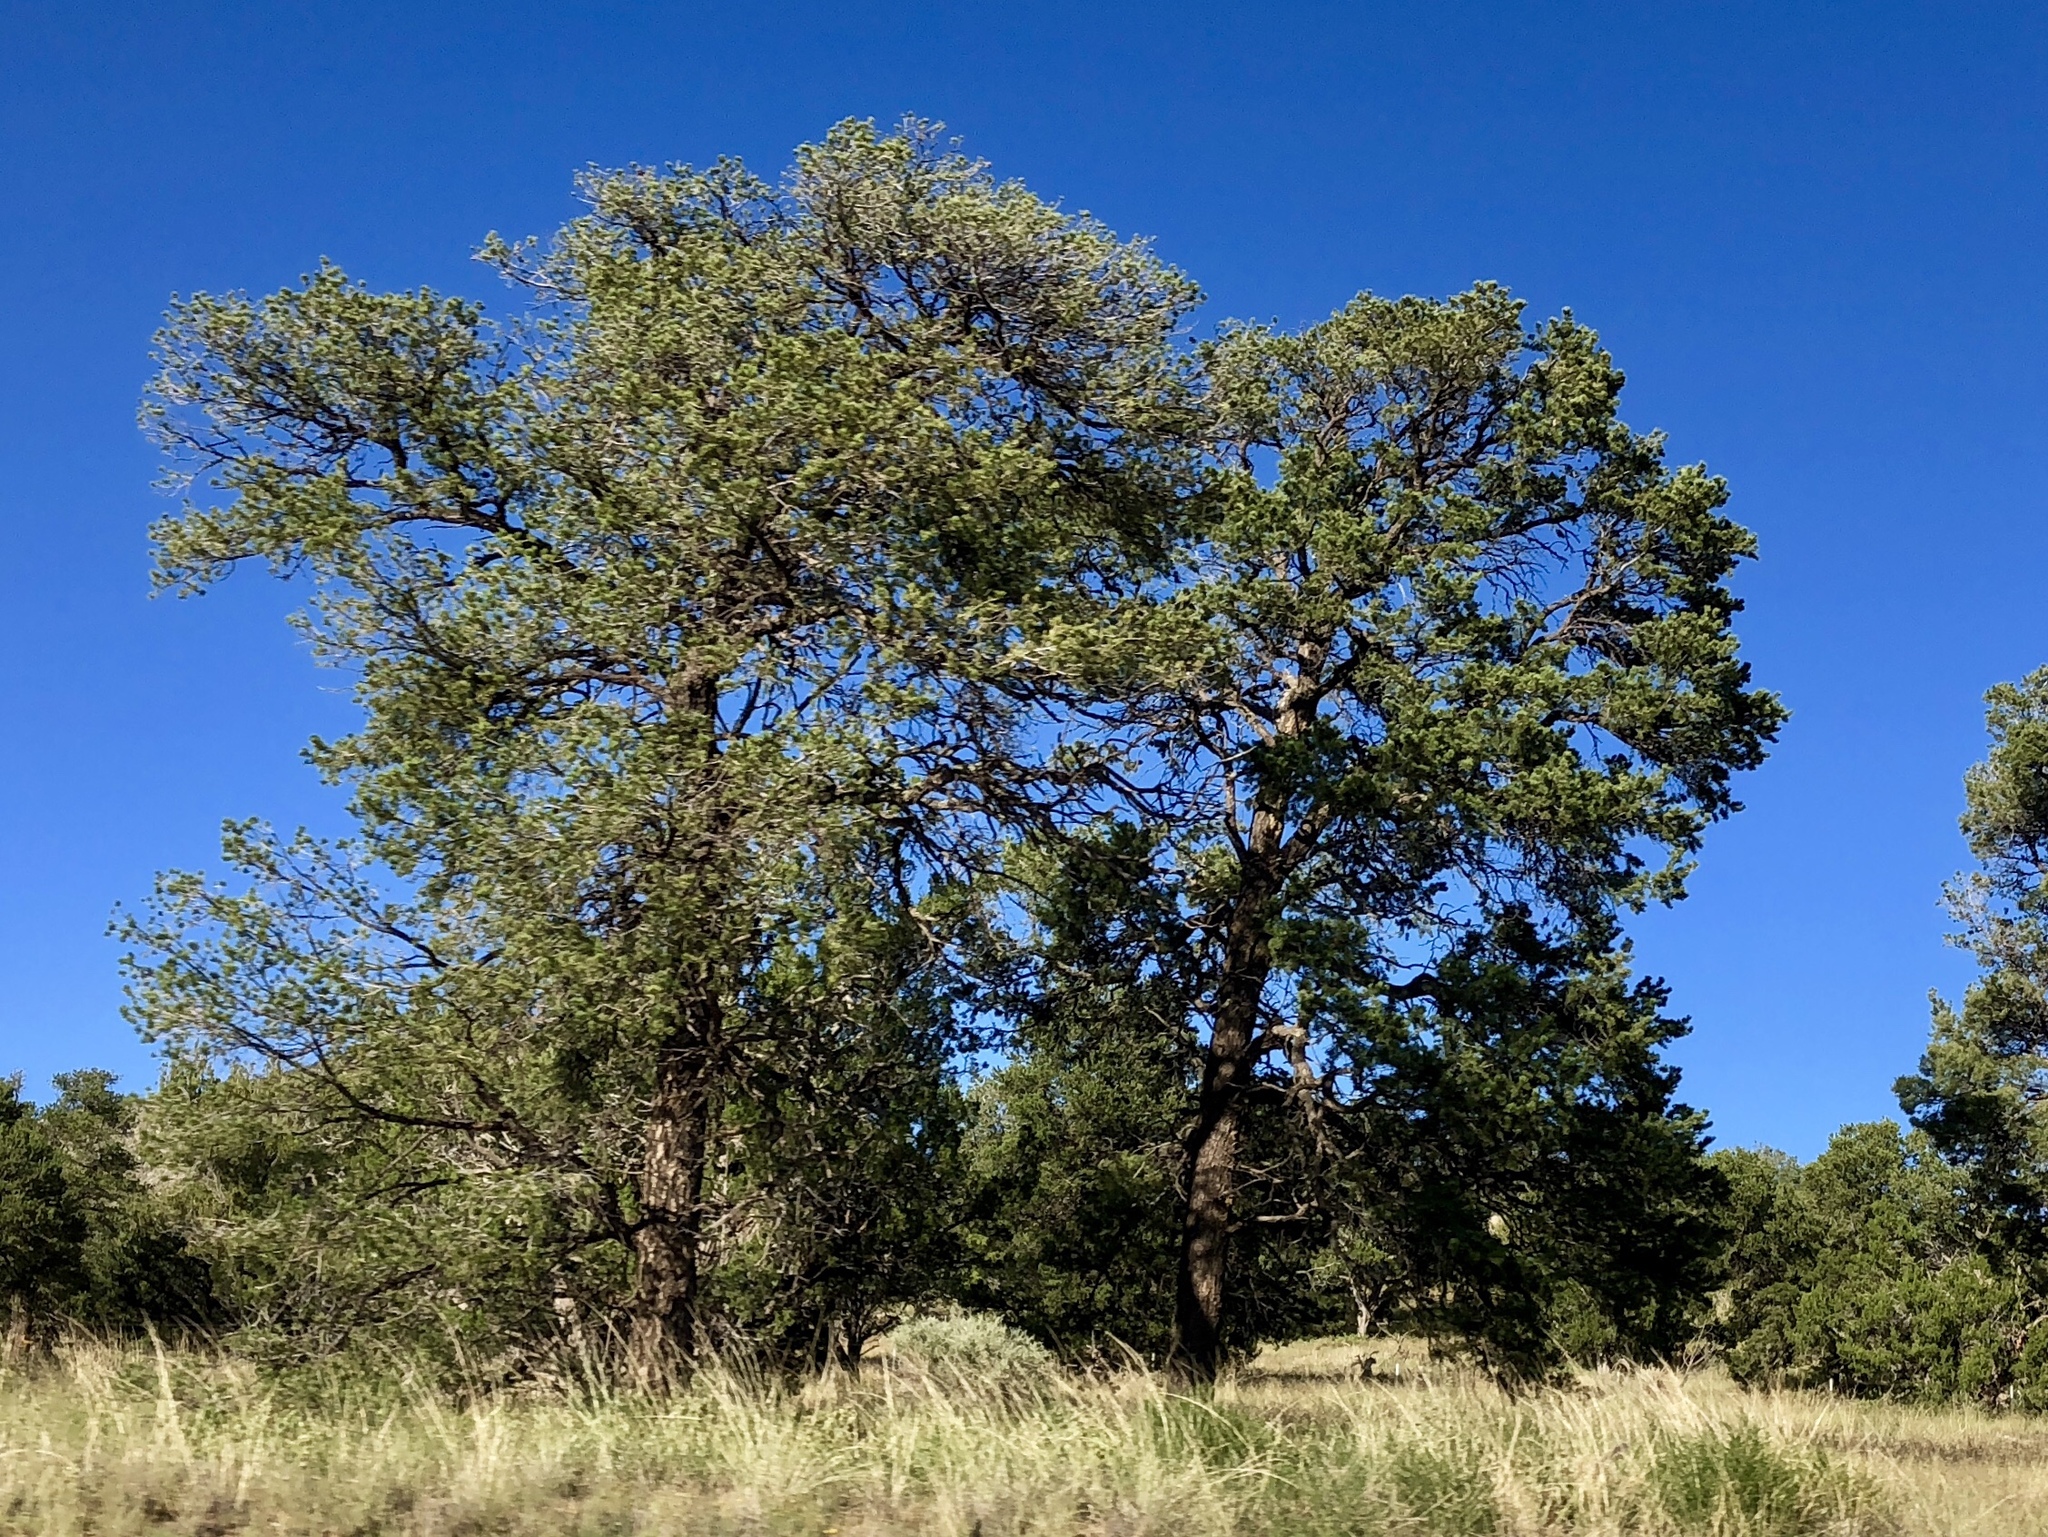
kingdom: Plantae
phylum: Tracheophyta
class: Pinopsida
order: Pinales
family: Pinaceae
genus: Pinus
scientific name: Pinus edulis
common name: Colorado pinyon
